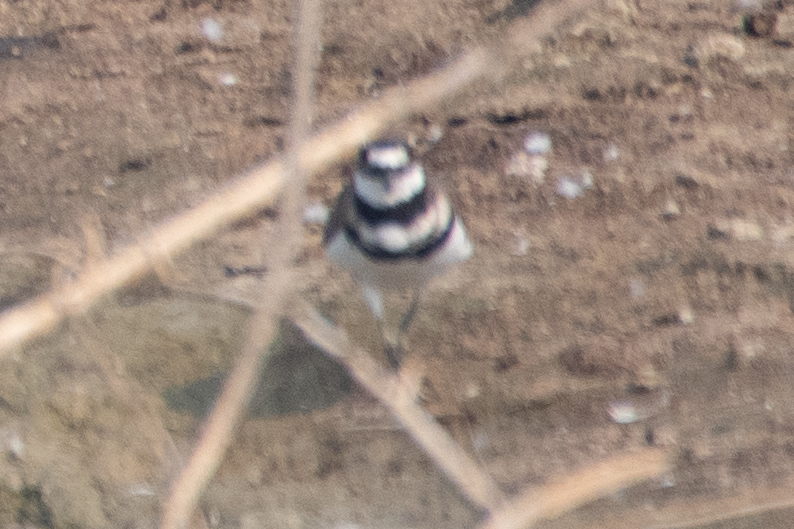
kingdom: Animalia
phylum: Chordata
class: Aves
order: Charadriiformes
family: Charadriidae
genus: Charadrius
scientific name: Charadrius vociferus
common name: Killdeer
